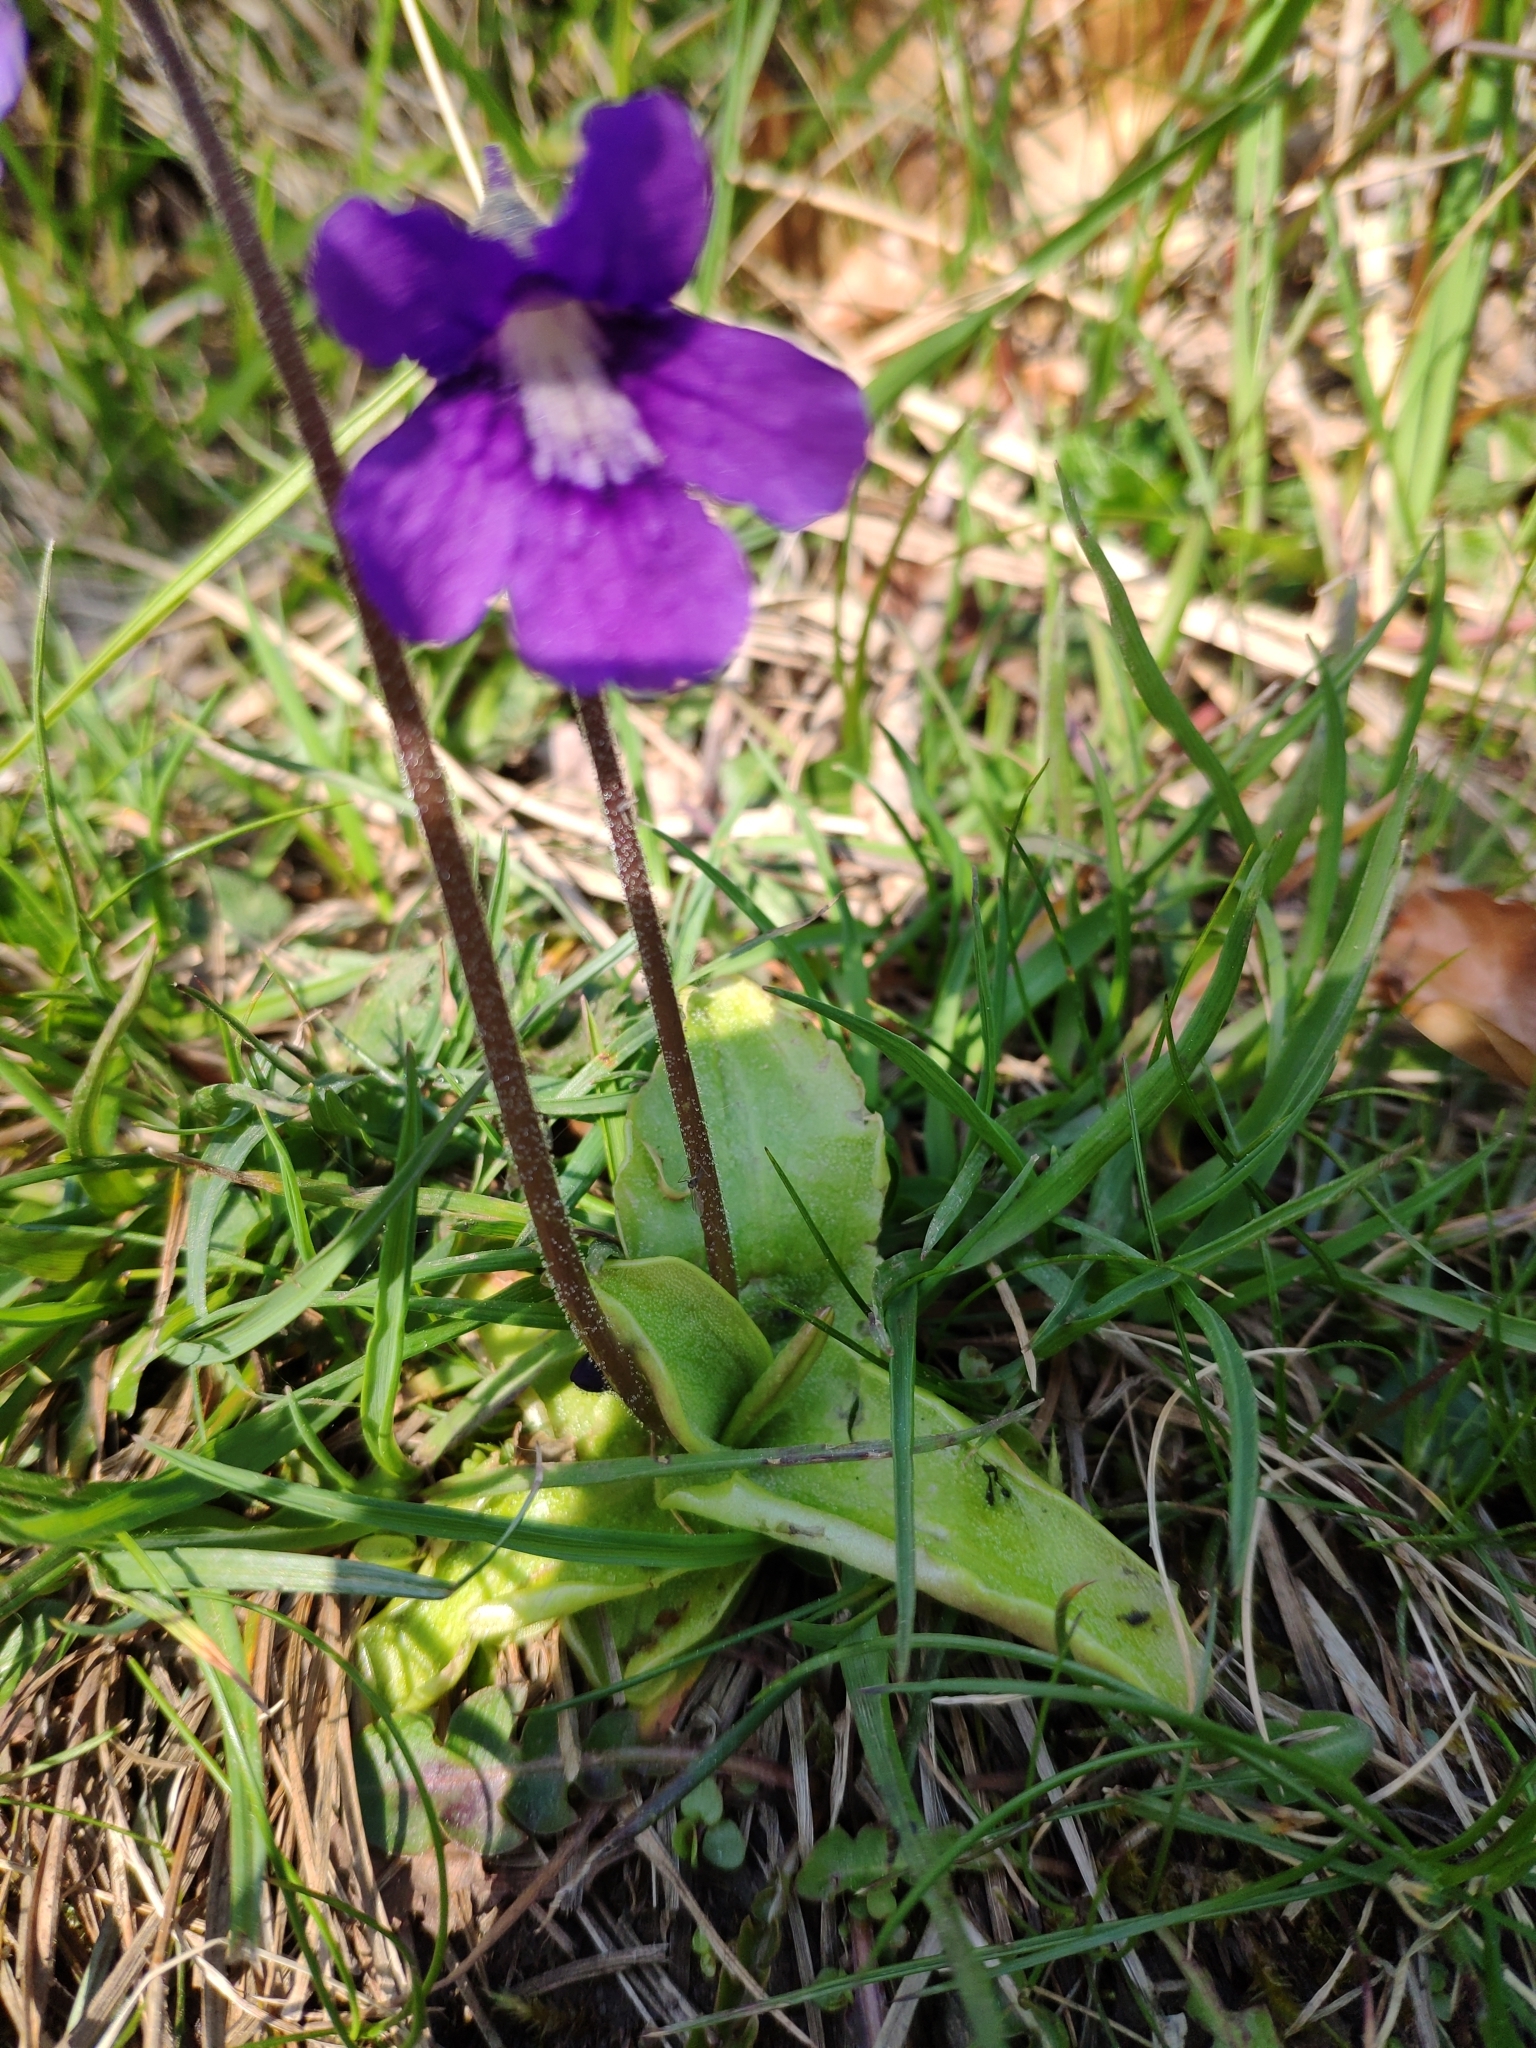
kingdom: Plantae
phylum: Tracheophyta
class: Magnoliopsida
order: Lamiales
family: Lentibulariaceae
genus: Pinguicula
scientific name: Pinguicula grandiflora
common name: Large-flowered butterwort
